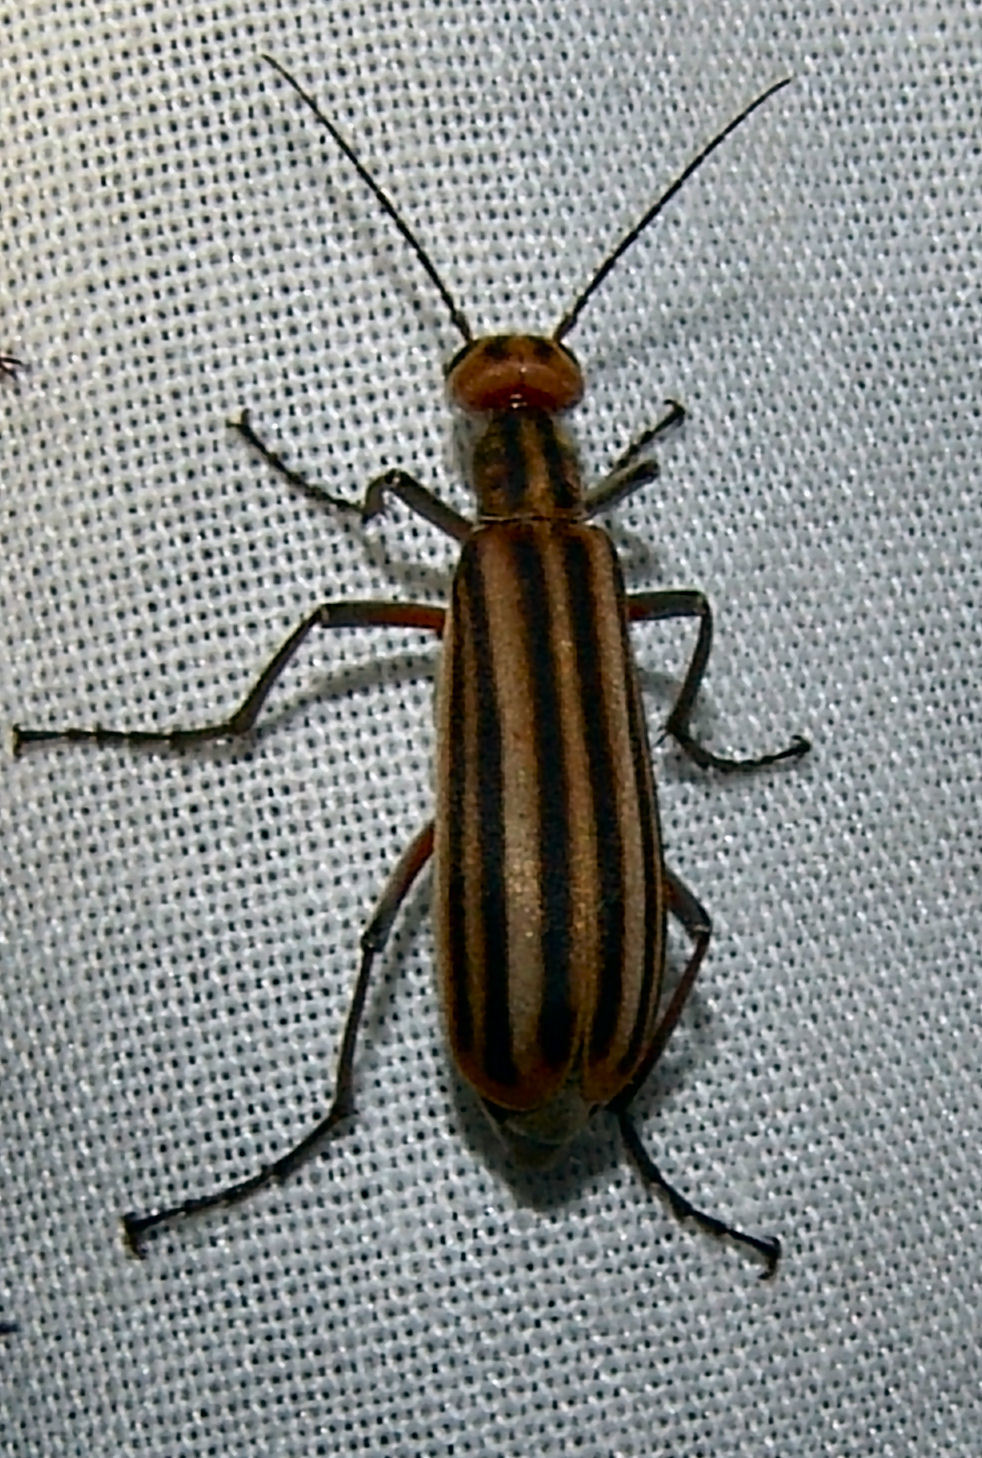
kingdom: Animalia
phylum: Arthropoda
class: Insecta
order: Coleoptera
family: Meloidae
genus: Epicauta
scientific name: Epicauta vittata
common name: Old-fashioned potato beetle
